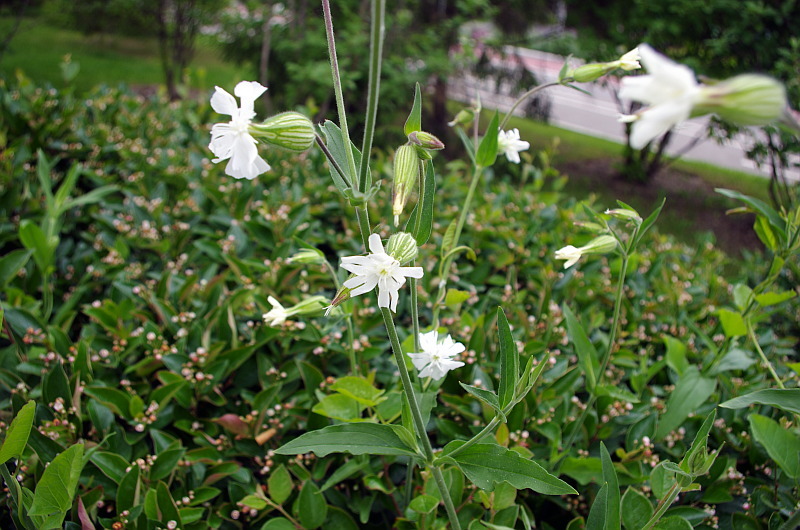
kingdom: Plantae
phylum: Tracheophyta
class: Magnoliopsida
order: Caryophyllales
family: Caryophyllaceae
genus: Silene
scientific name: Silene latifolia
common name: White campion
